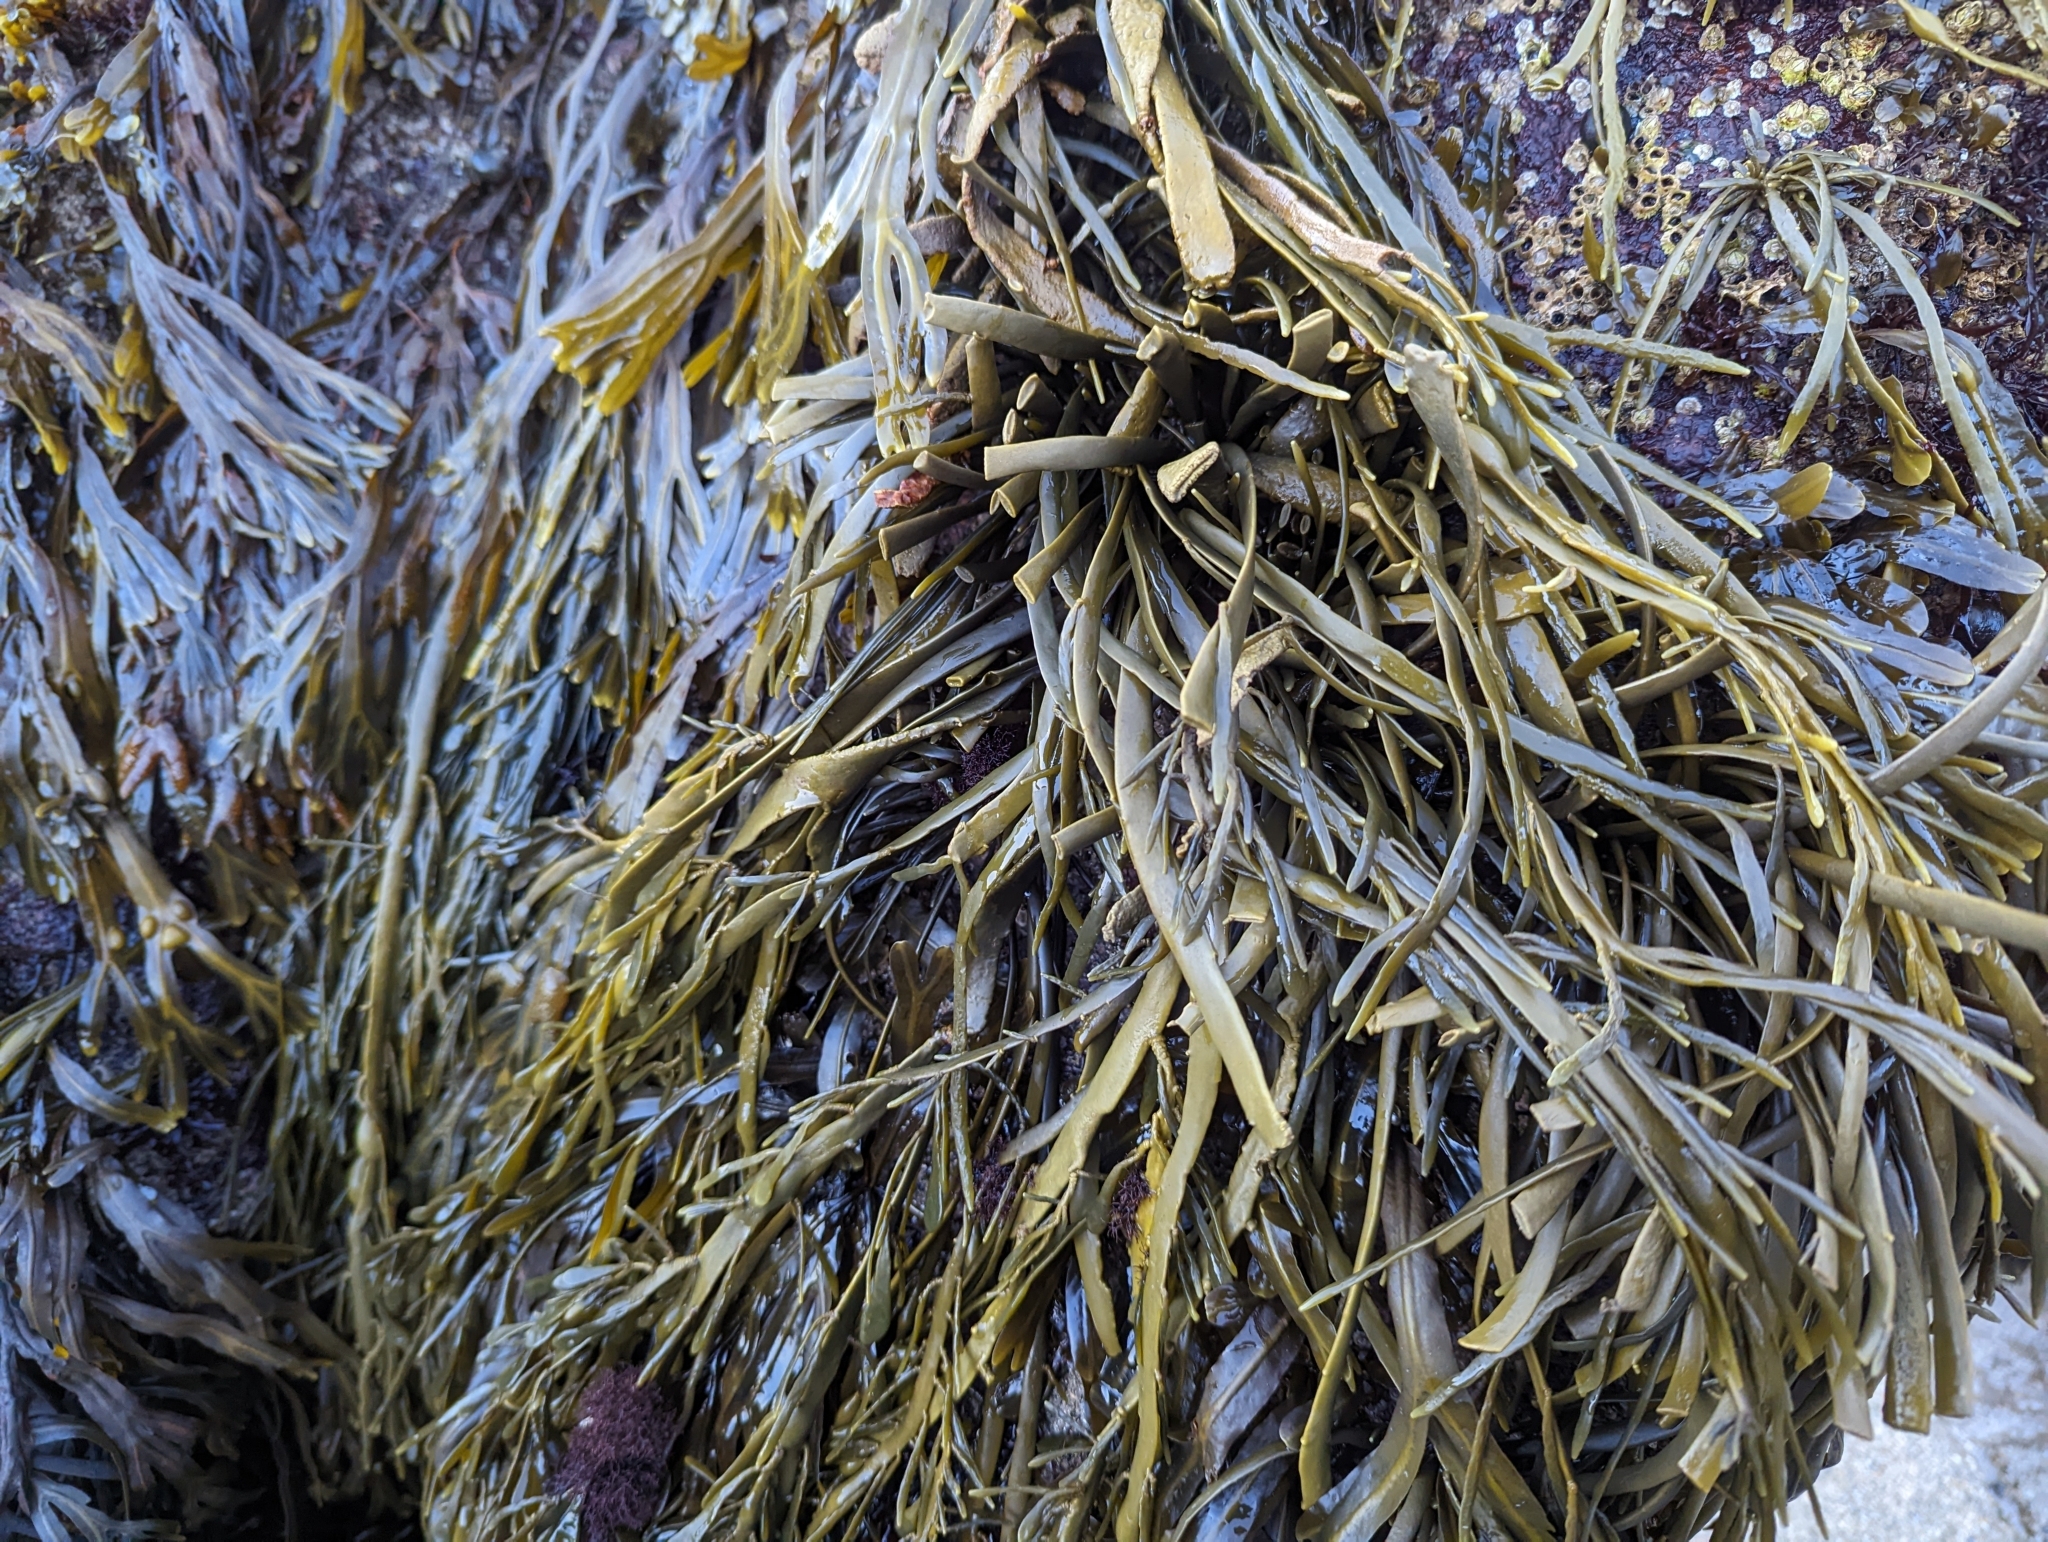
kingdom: Chromista
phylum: Ochrophyta
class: Phaeophyceae
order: Fucales
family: Fucaceae
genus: Ascophyllum
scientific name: Ascophyllum nodosum
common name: Knotted wrack
